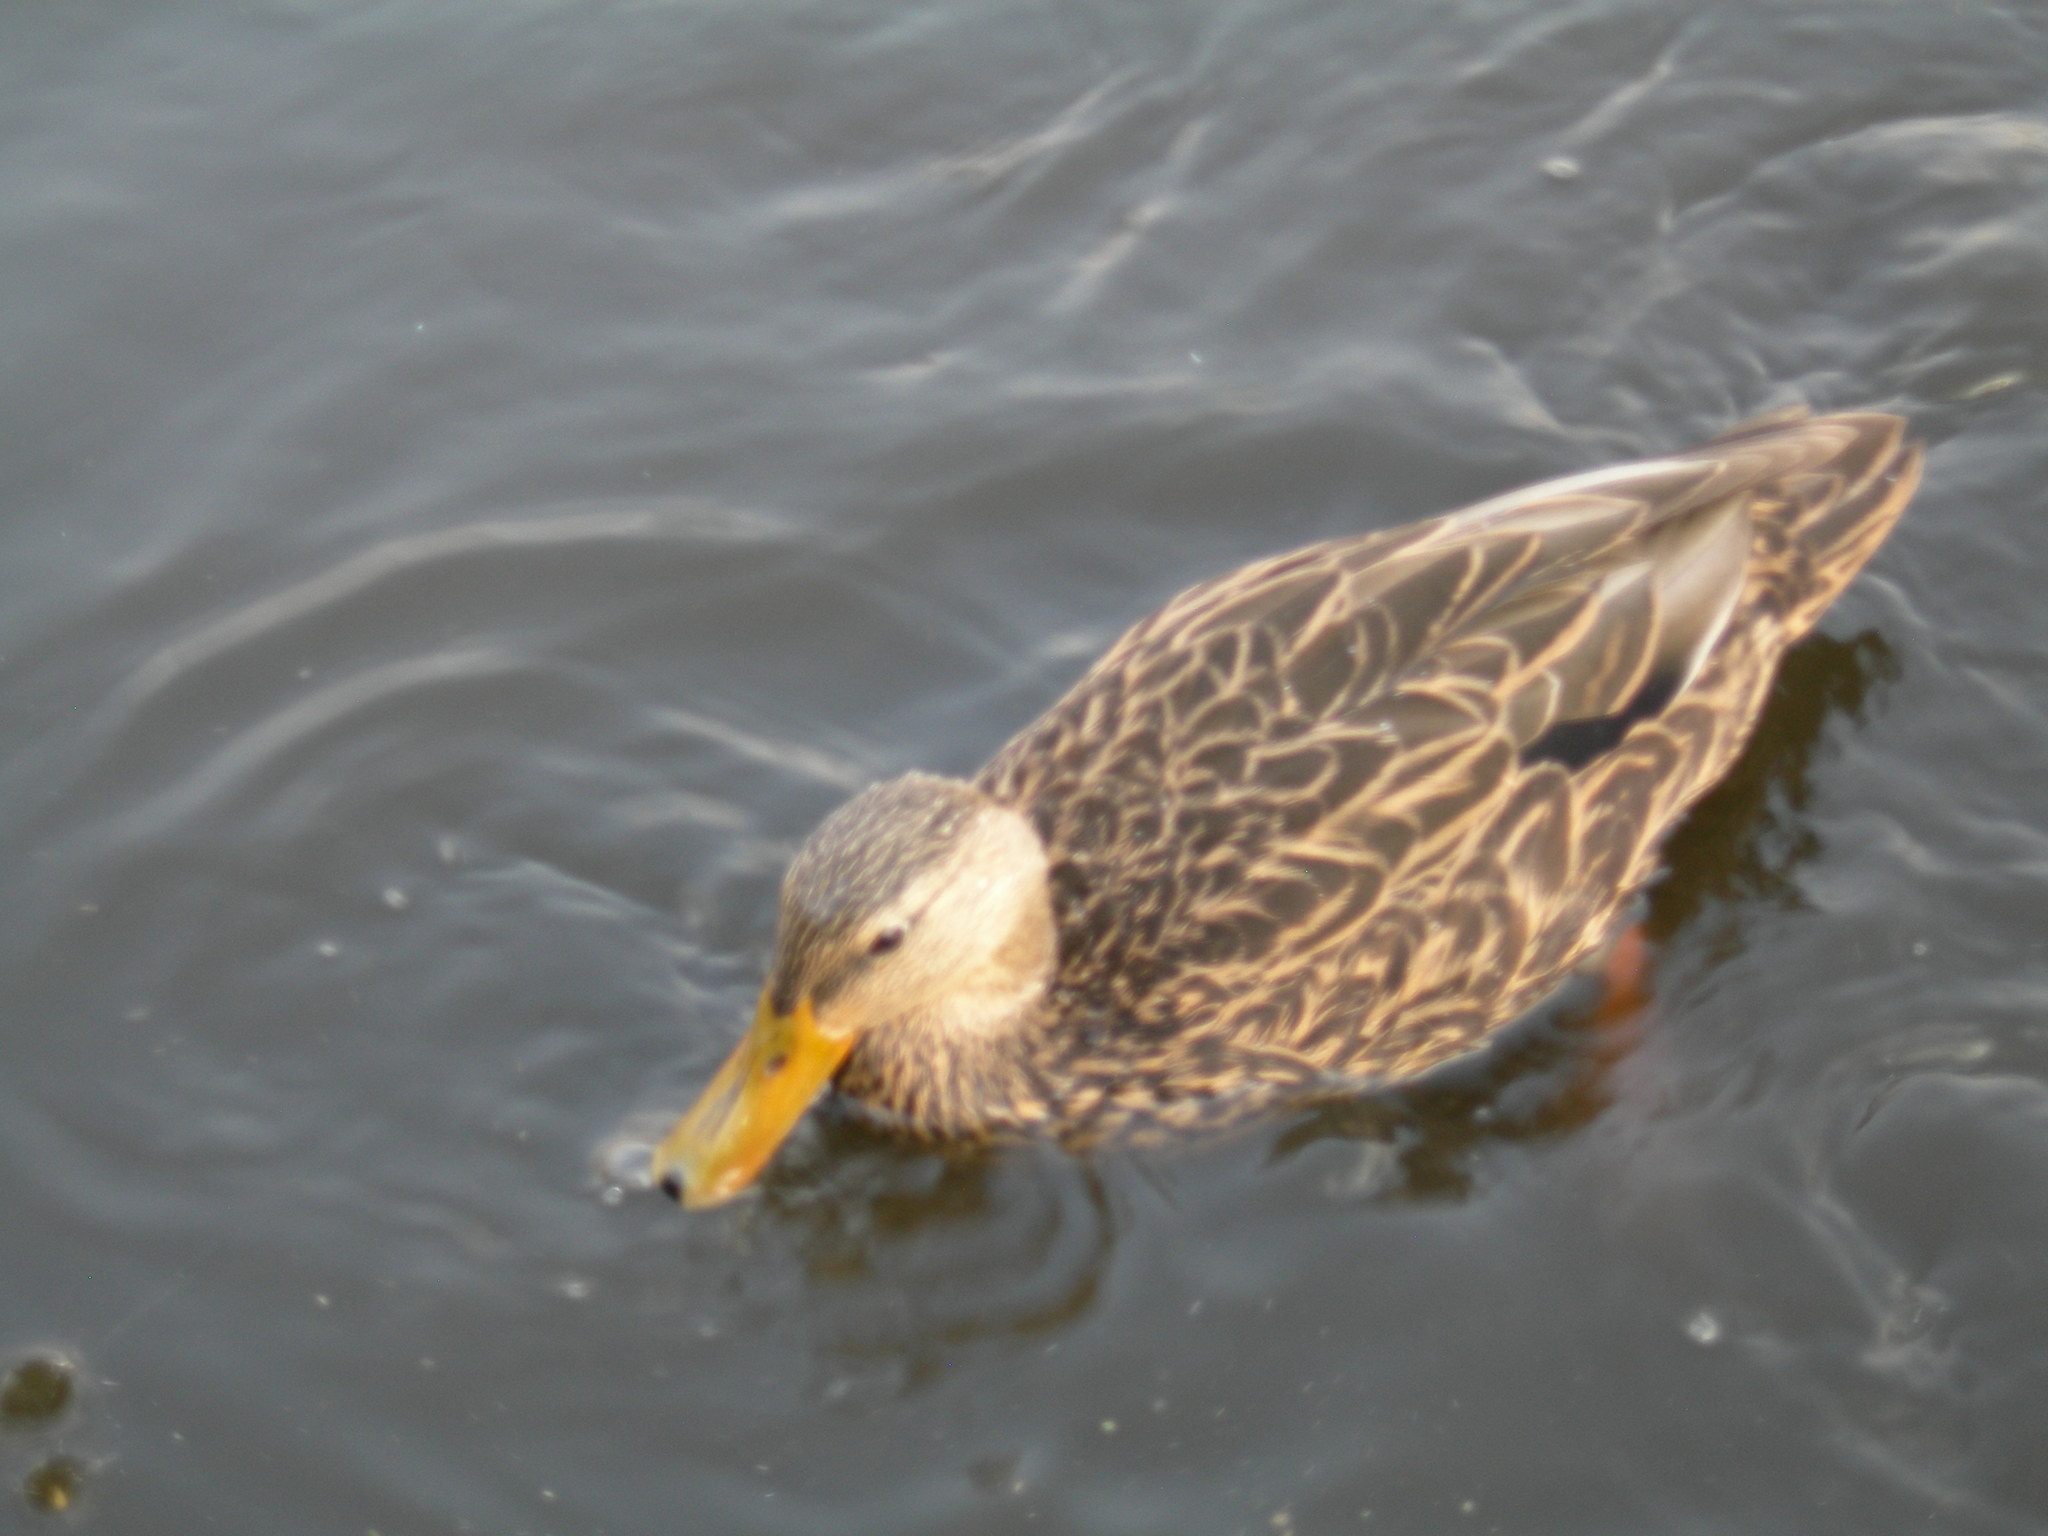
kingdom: Animalia
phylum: Chordata
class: Aves
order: Anseriformes
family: Anatidae
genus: Anas
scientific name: Anas diazi
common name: Mexican duck
